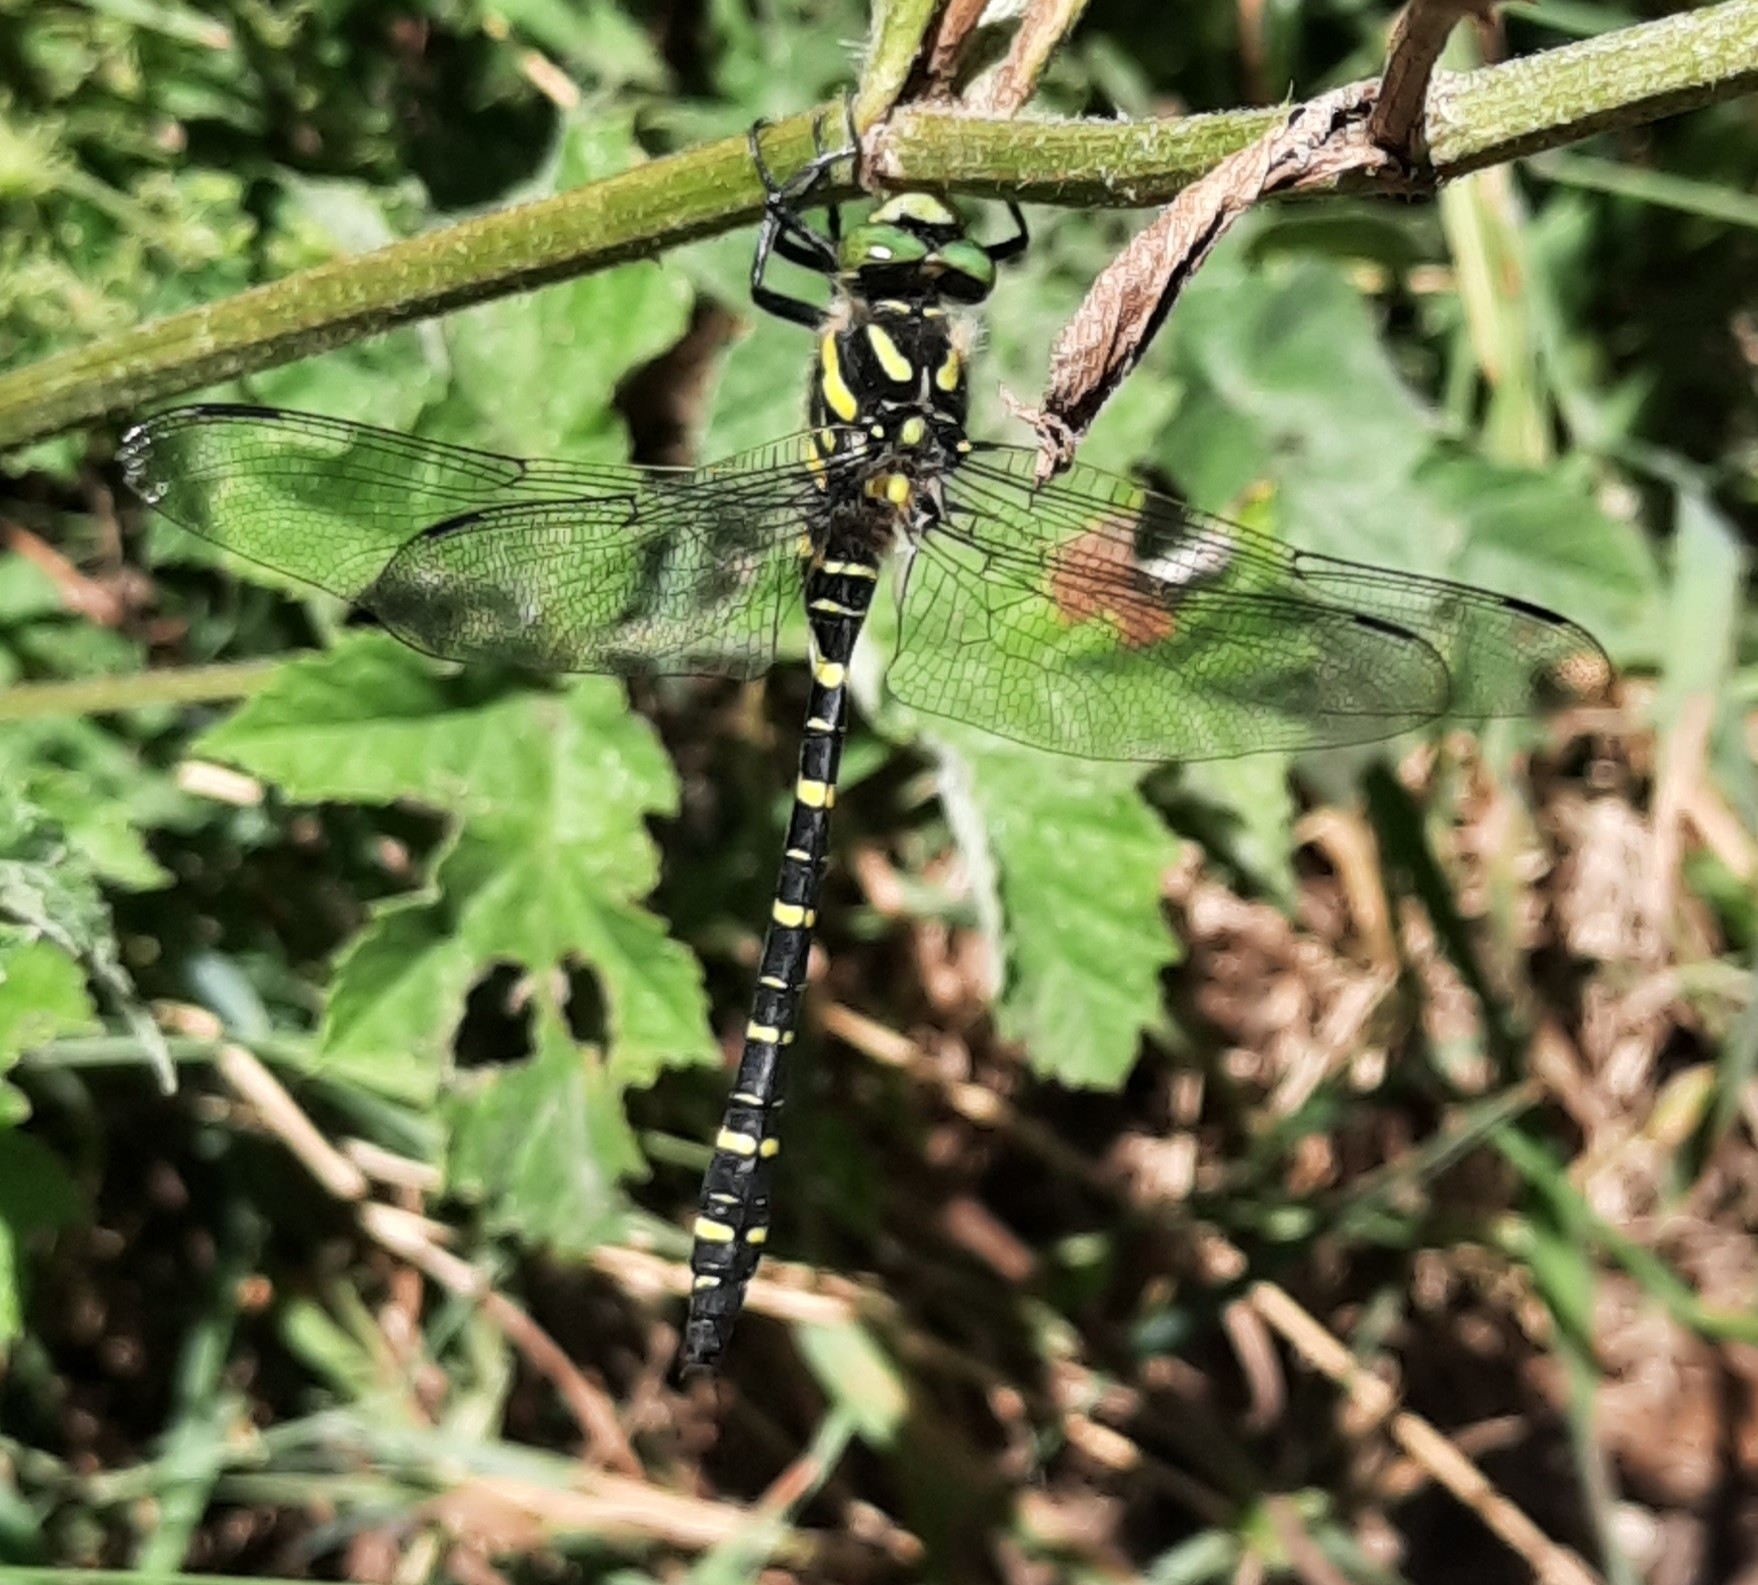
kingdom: Animalia
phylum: Arthropoda
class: Insecta
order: Odonata
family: Cordulegastridae
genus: Cordulegaster
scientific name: Cordulegaster boltonii
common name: Golden-ringed dragonfly
